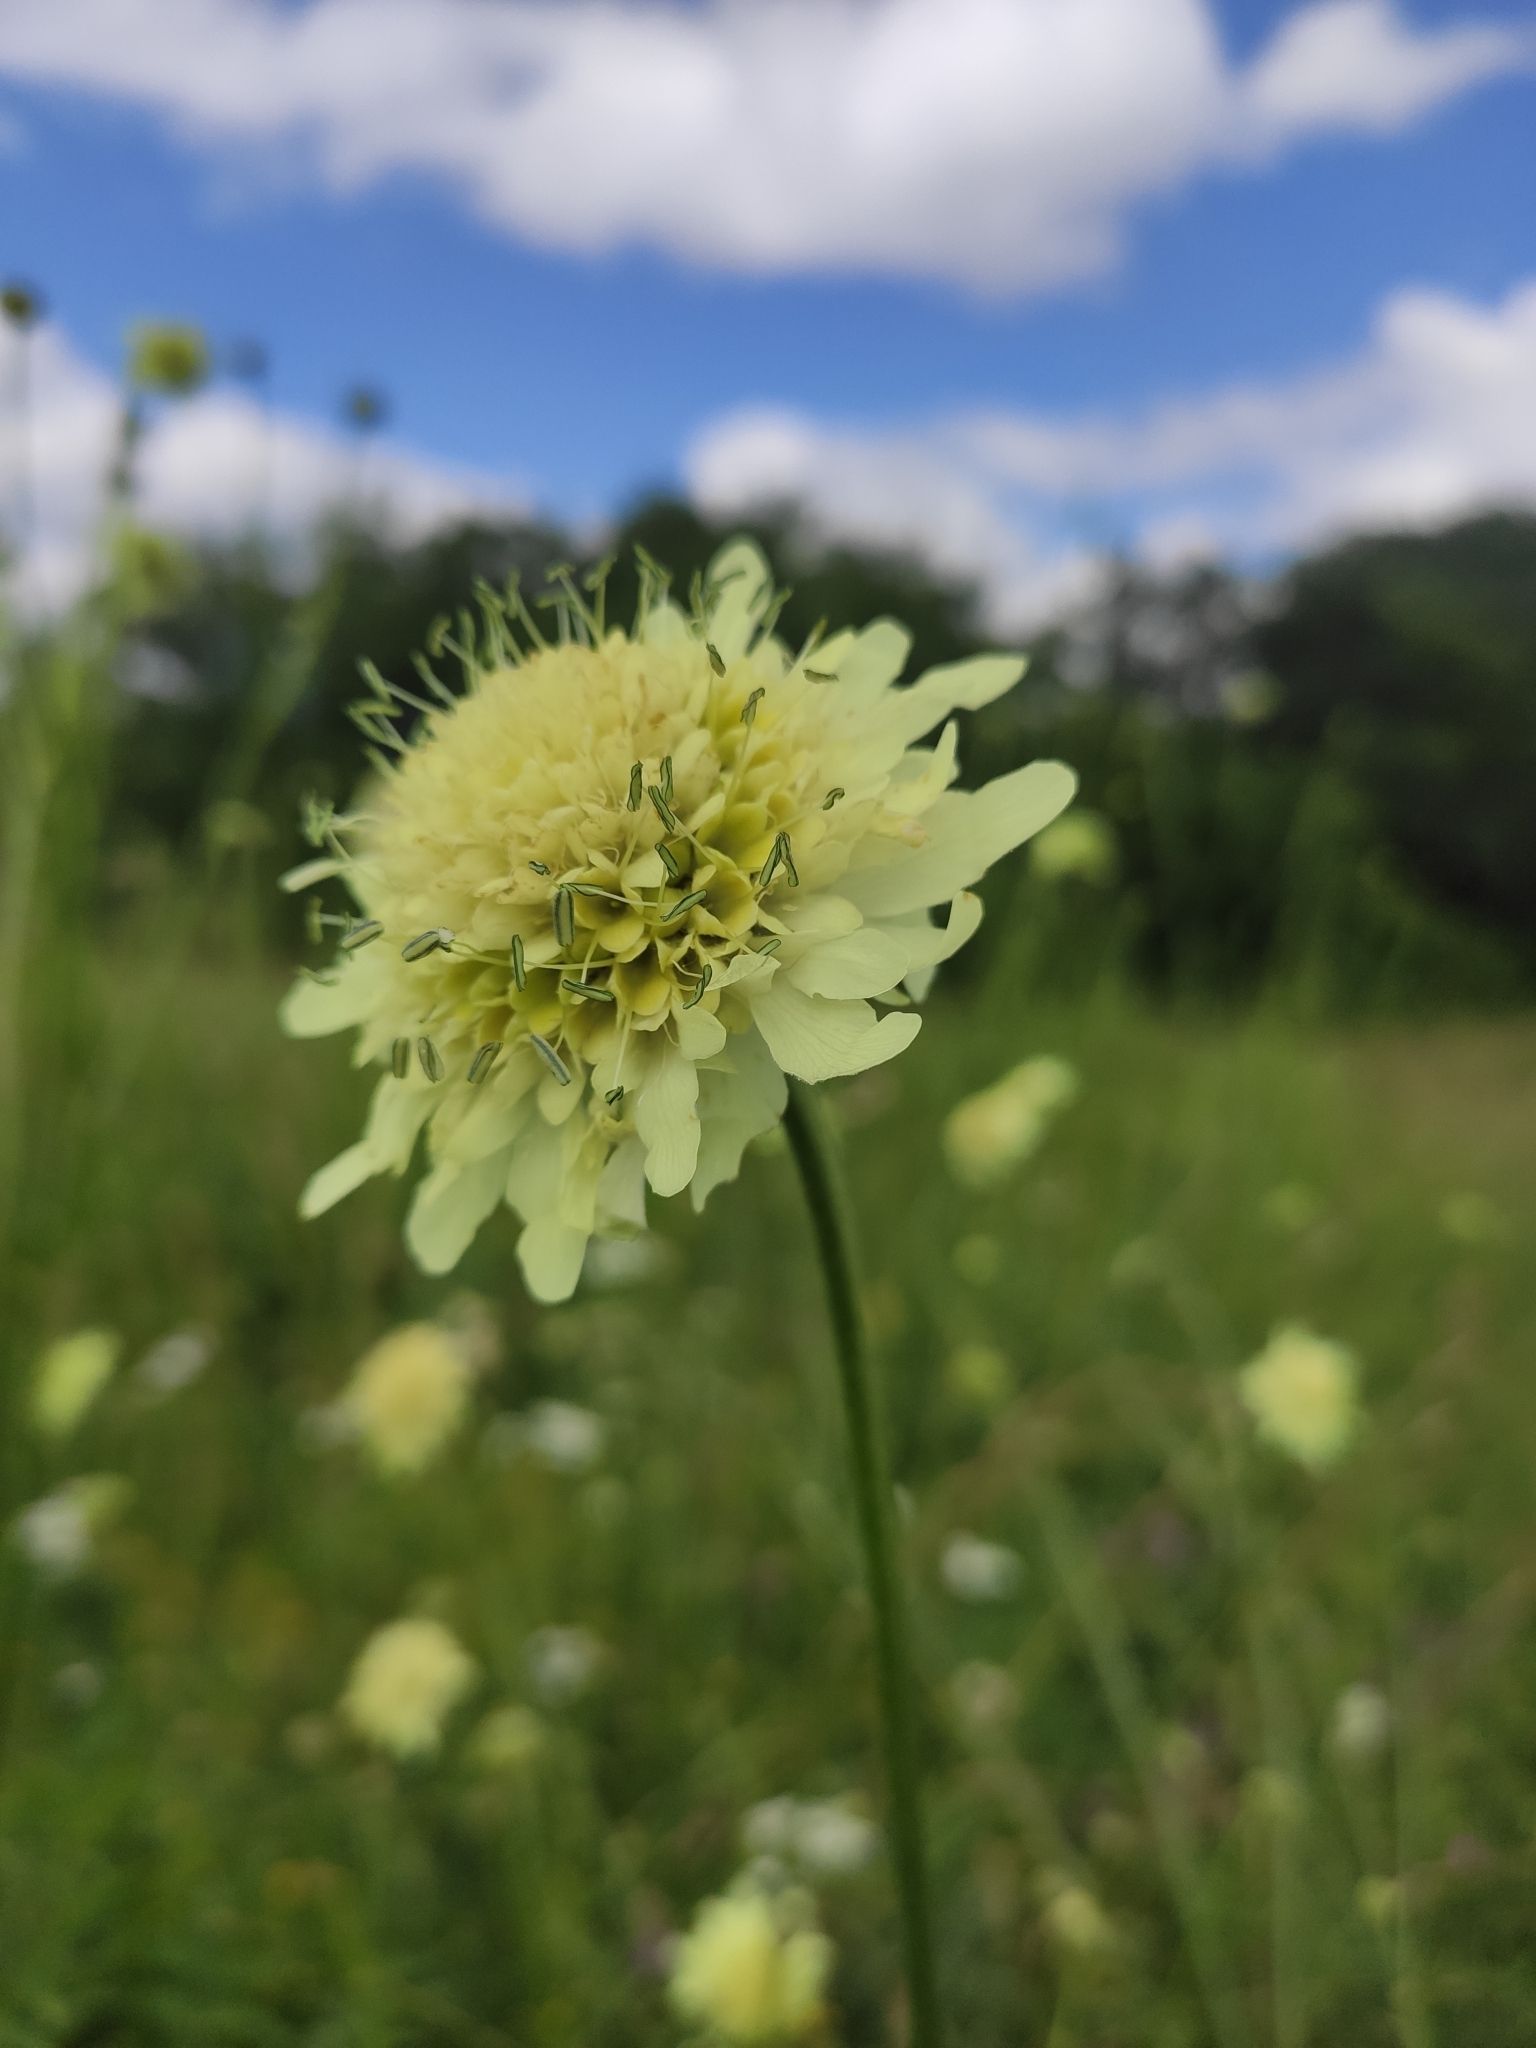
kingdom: Plantae
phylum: Tracheophyta
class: Magnoliopsida
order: Dipsacales
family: Caprifoliaceae
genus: Cephalaria
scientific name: Cephalaria gigantea
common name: Tatarian cephalaria
